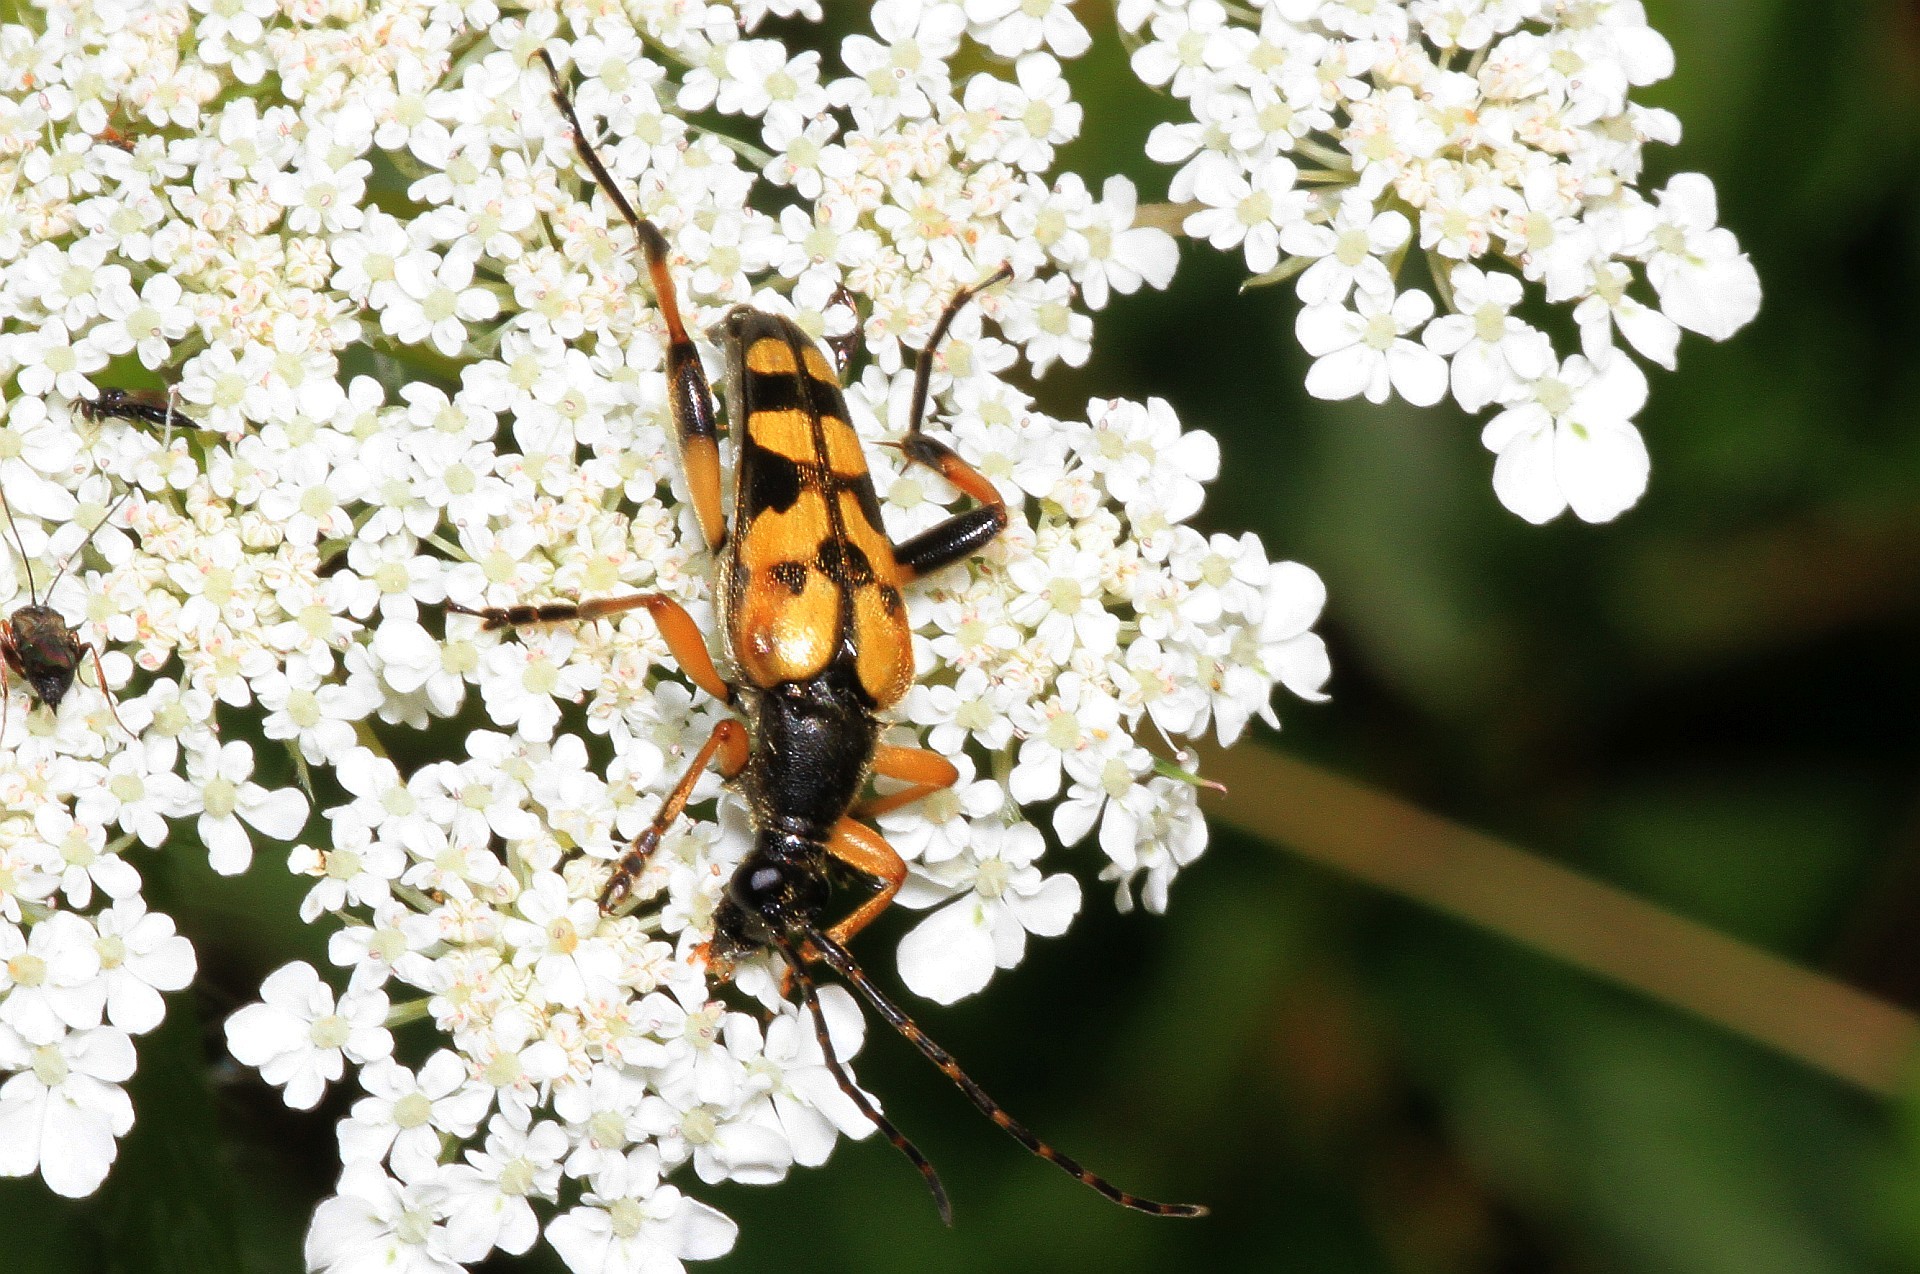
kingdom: Animalia
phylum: Arthropoda
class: Insecta
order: Coleoptera
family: Cerambycidae
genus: Rutpela
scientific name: Rutpela maculata
